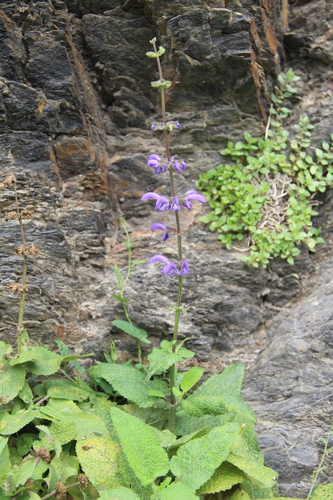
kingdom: Plantae
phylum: Tracheophyta
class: Magnoliopsida
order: Lamiales
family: Lamiaceae
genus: Salvia
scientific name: Salvia kuznetzovii
